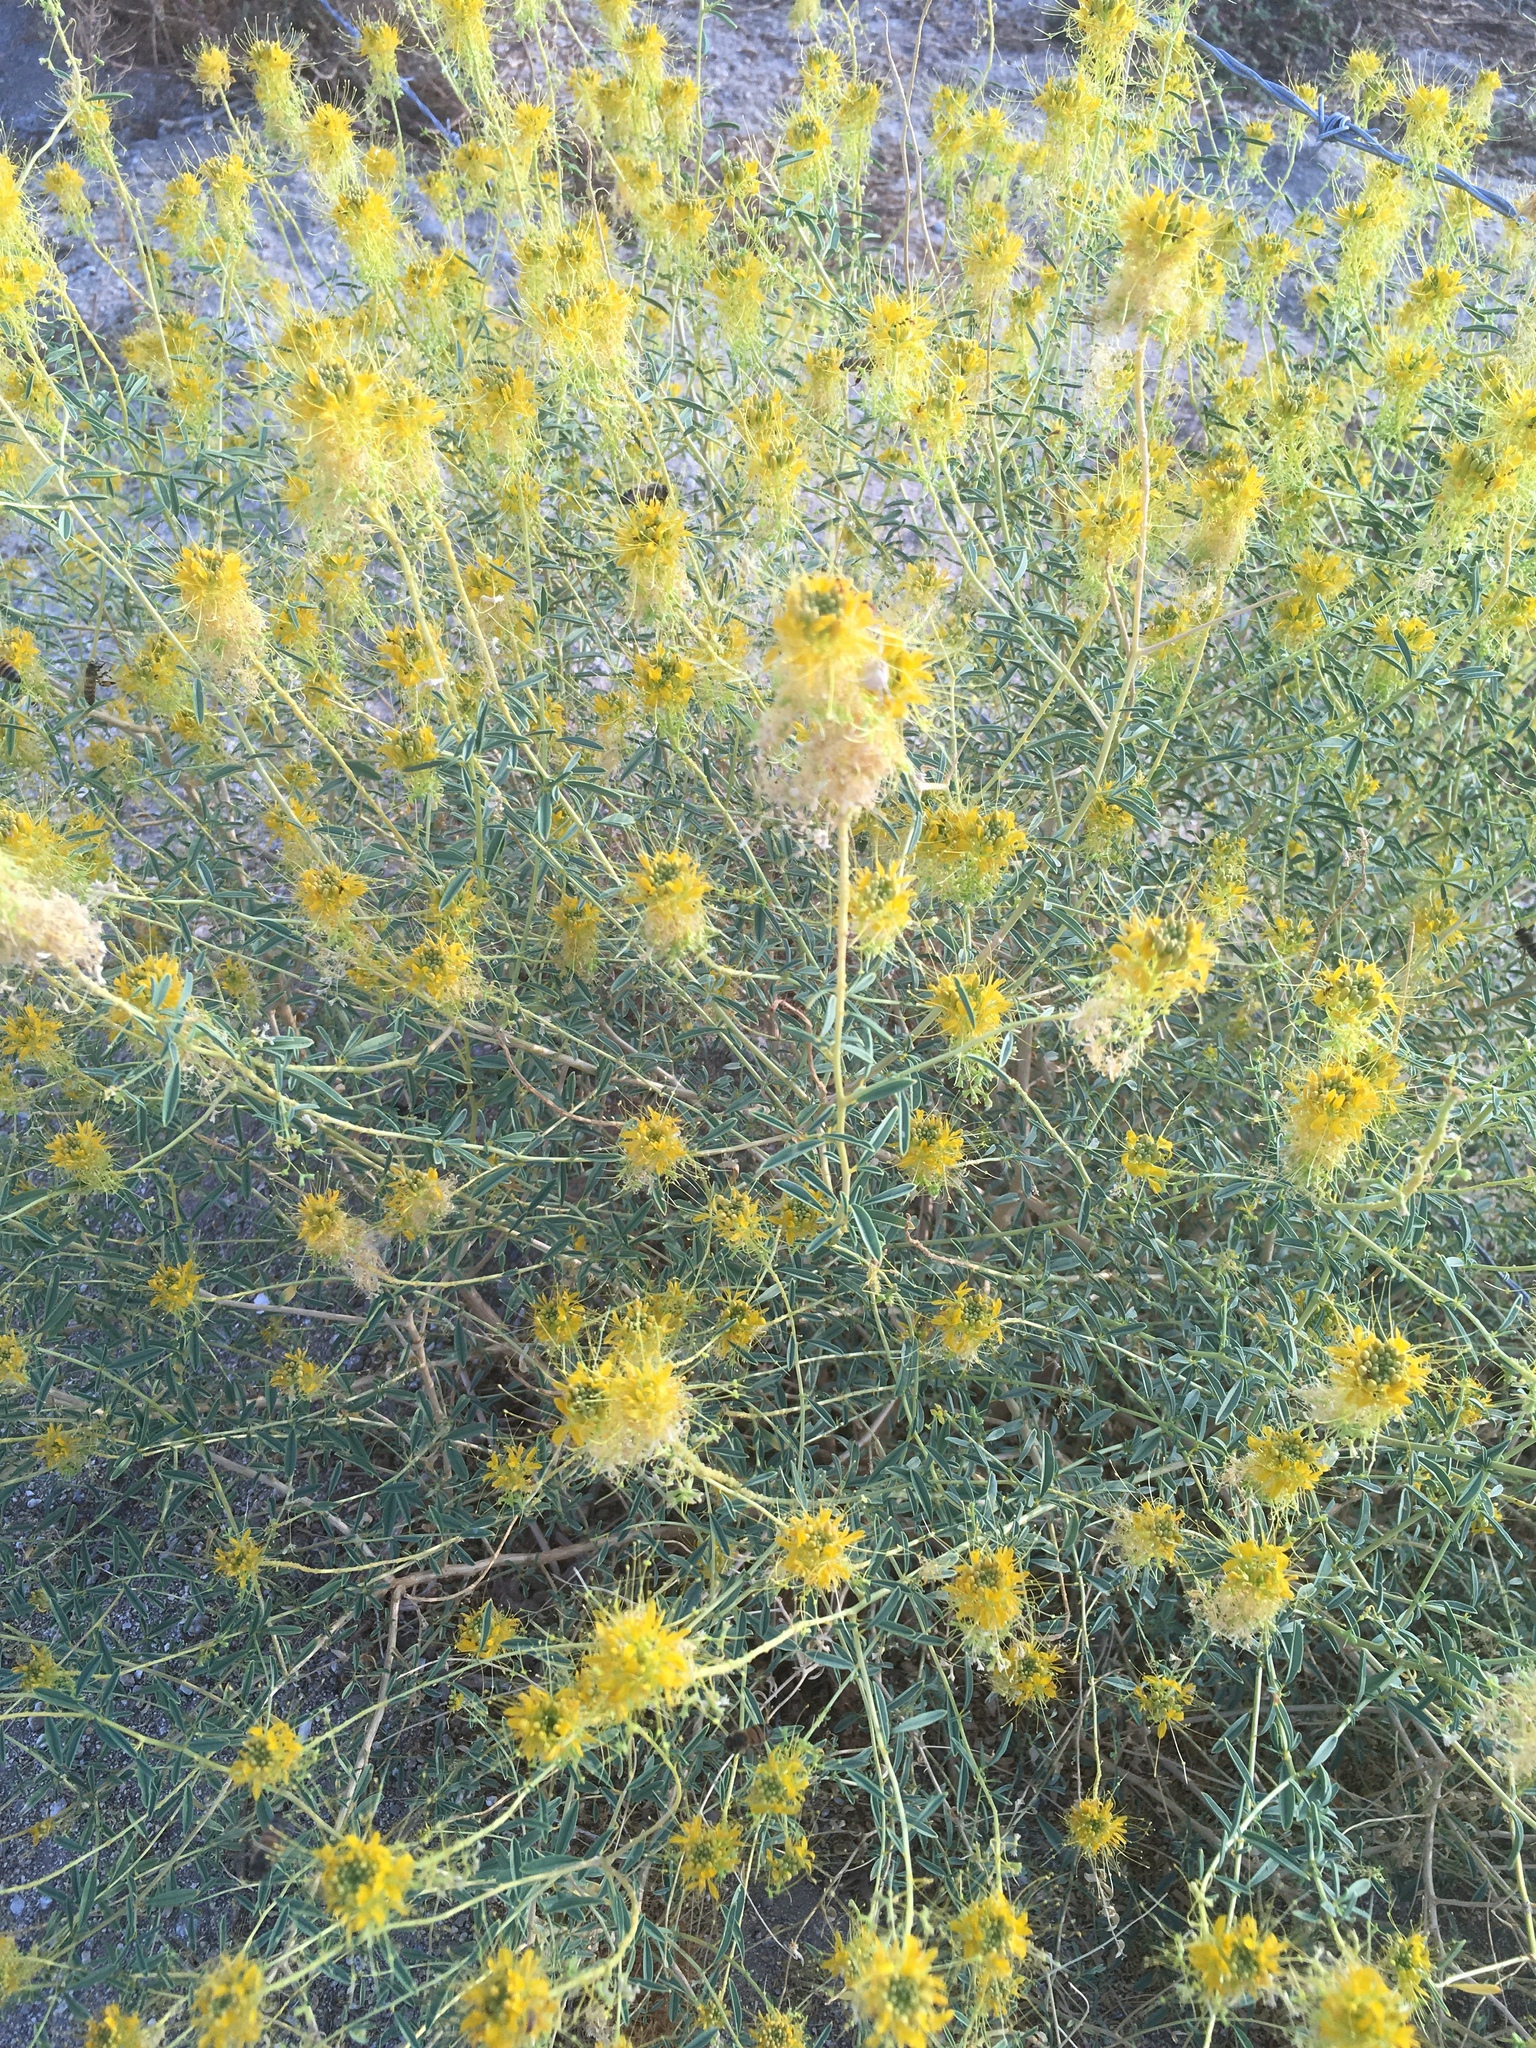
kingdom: Plantae
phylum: Tracheophyta
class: Magnoliopsida
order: Brassicales
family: Cleomaceae
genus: Cleomella
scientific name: Cleomella palmeri
